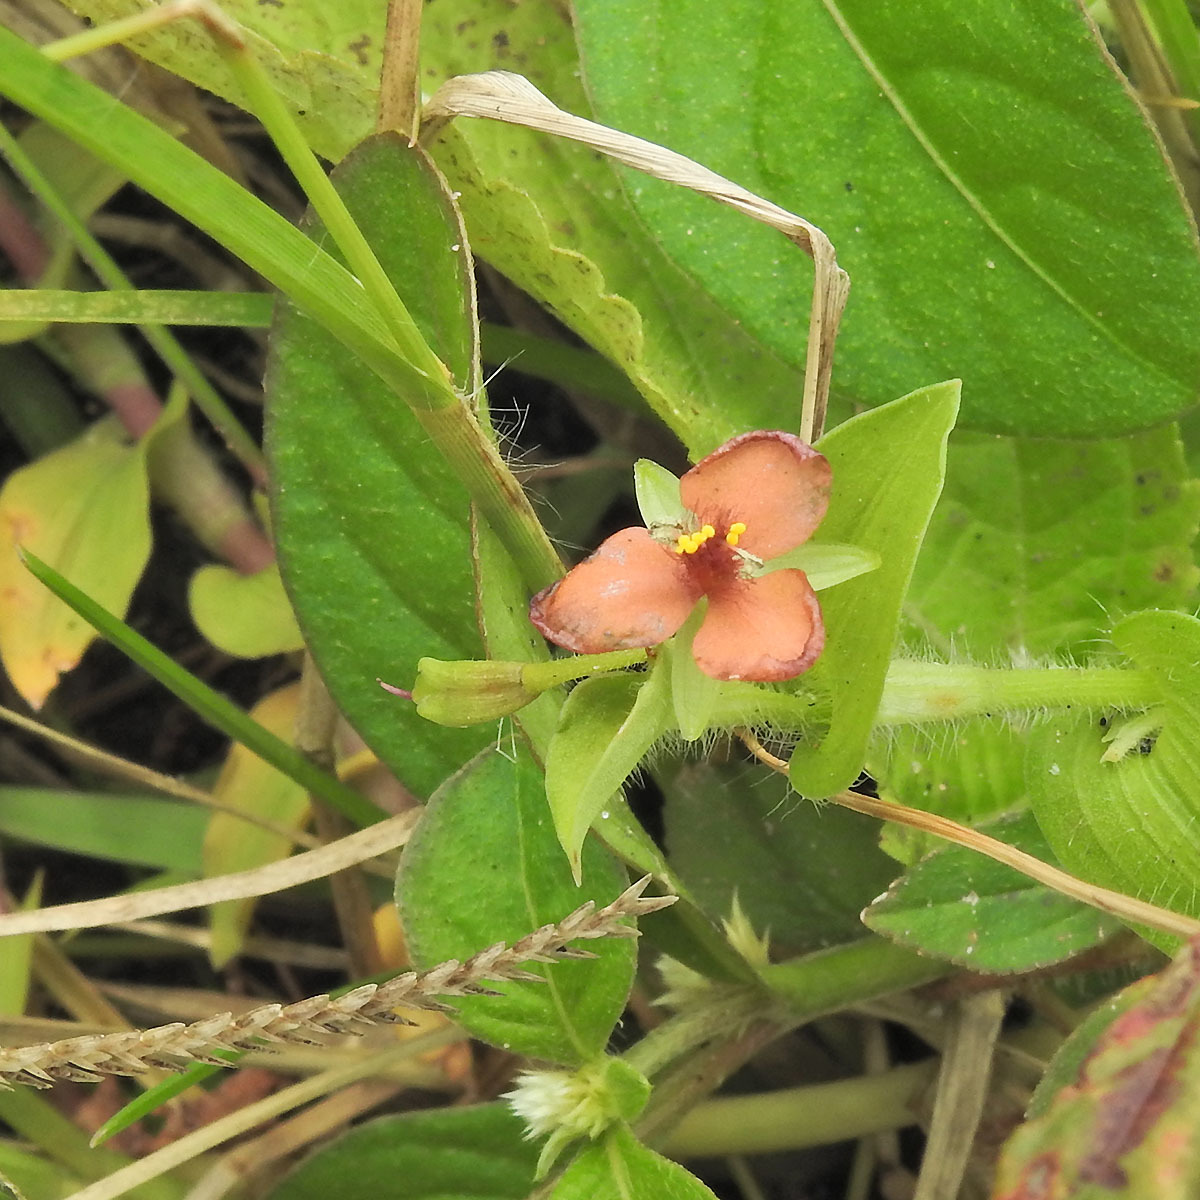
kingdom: Plantae
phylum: Tracheophyta
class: Liliopsida
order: Commelinales
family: Commelinaceae
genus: Murdannia
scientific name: Murdannia pauciflora
